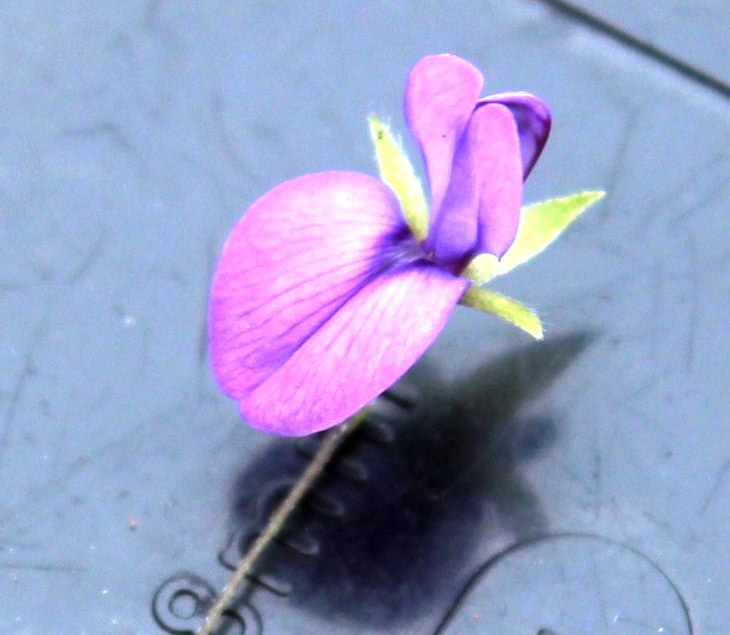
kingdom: Plantae
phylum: Tracheophyta
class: Magnoliopsida
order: Fabales
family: Fabaceae
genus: Psoralea
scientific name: Psoralea asarina
